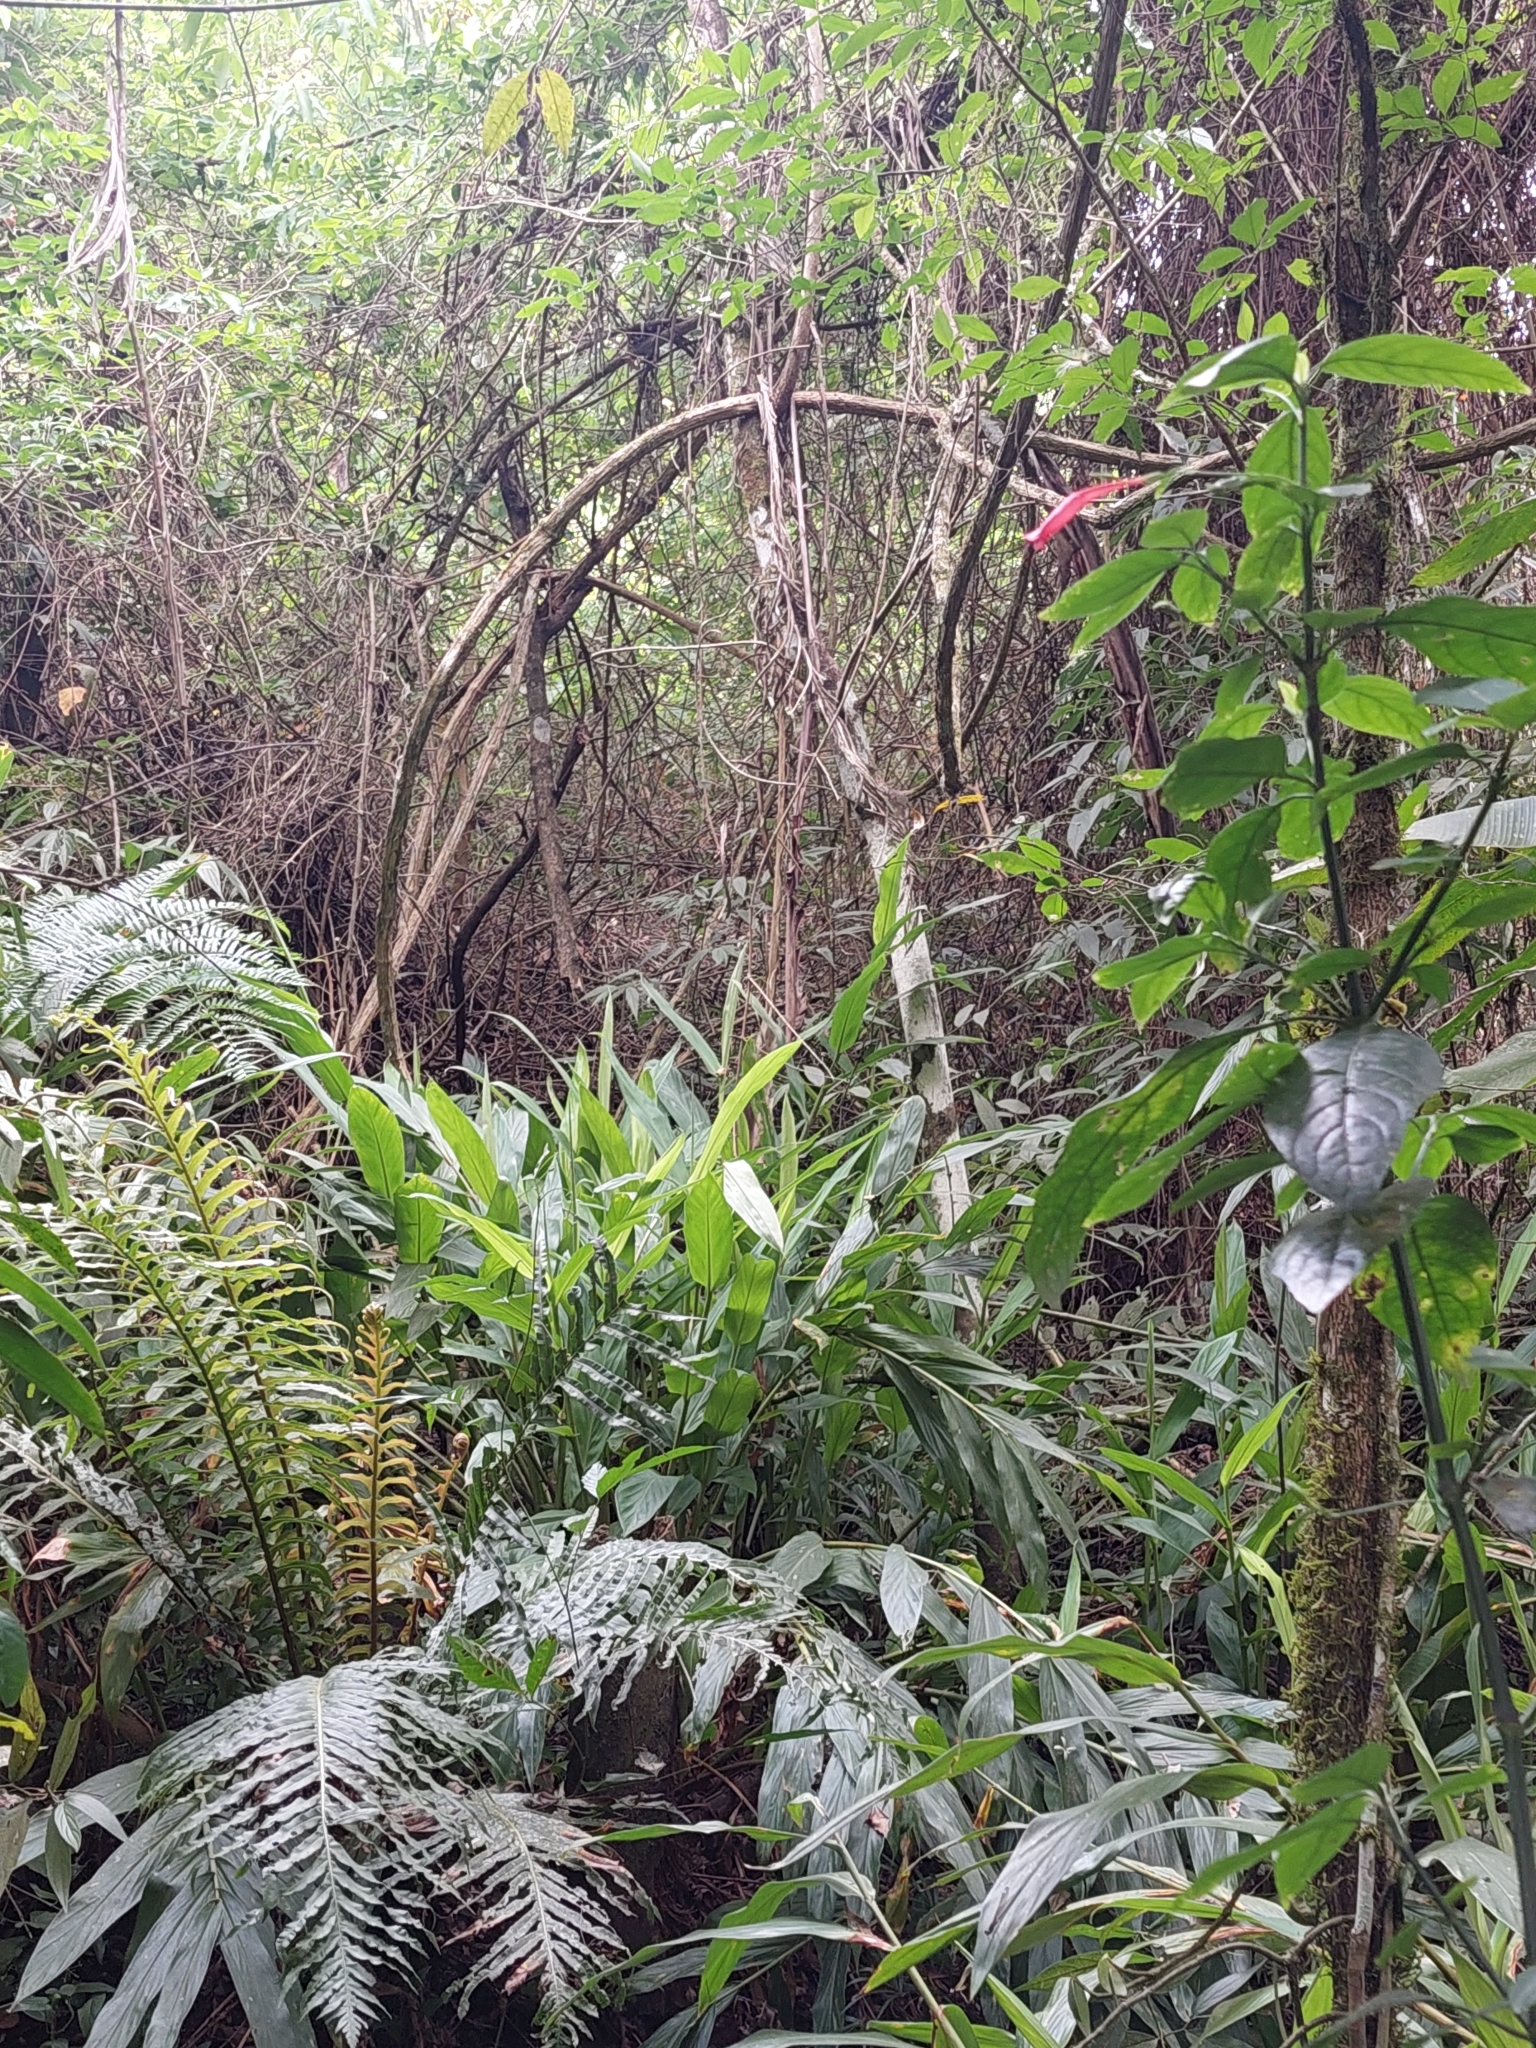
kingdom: Plantae
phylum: Tracheophyta
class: Liliopsida
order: Zingiberales
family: Zingiberaceae
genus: Hedychium
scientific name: Hedychium coronarium
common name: White garland-lily
